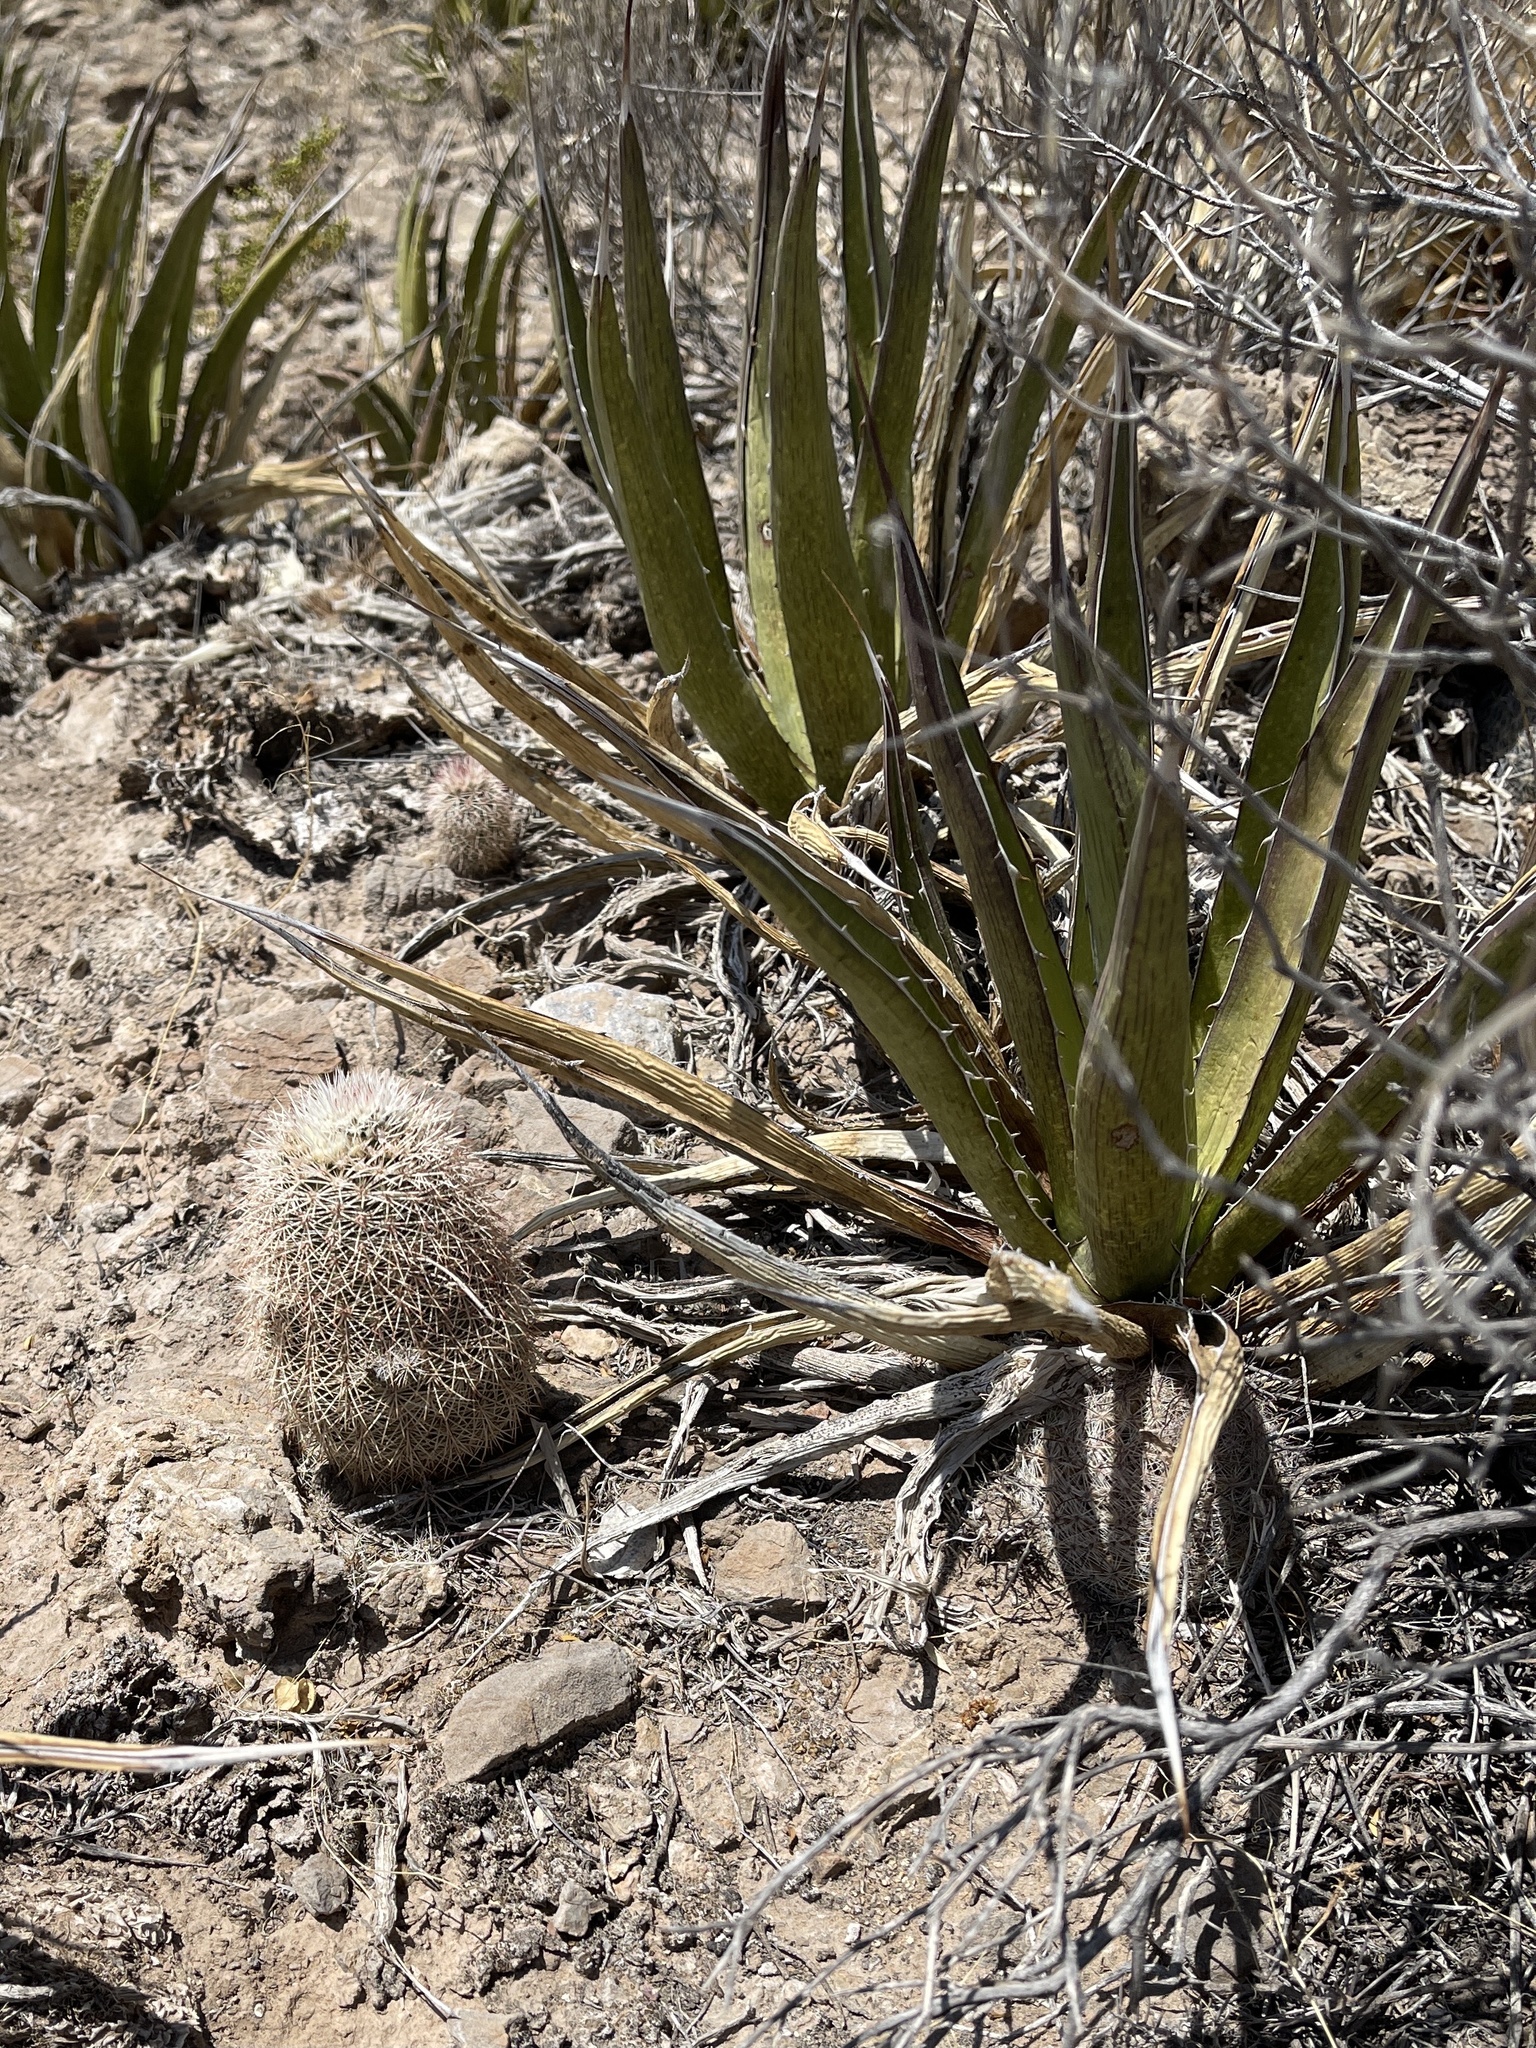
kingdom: Plantae
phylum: Tracheophyta
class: Magnoliopsida
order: Caryophyllales
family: Cactaceae
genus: Echinocereus
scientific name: Echinocereus dasyacanthus
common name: Spiny hedgehog cactus
